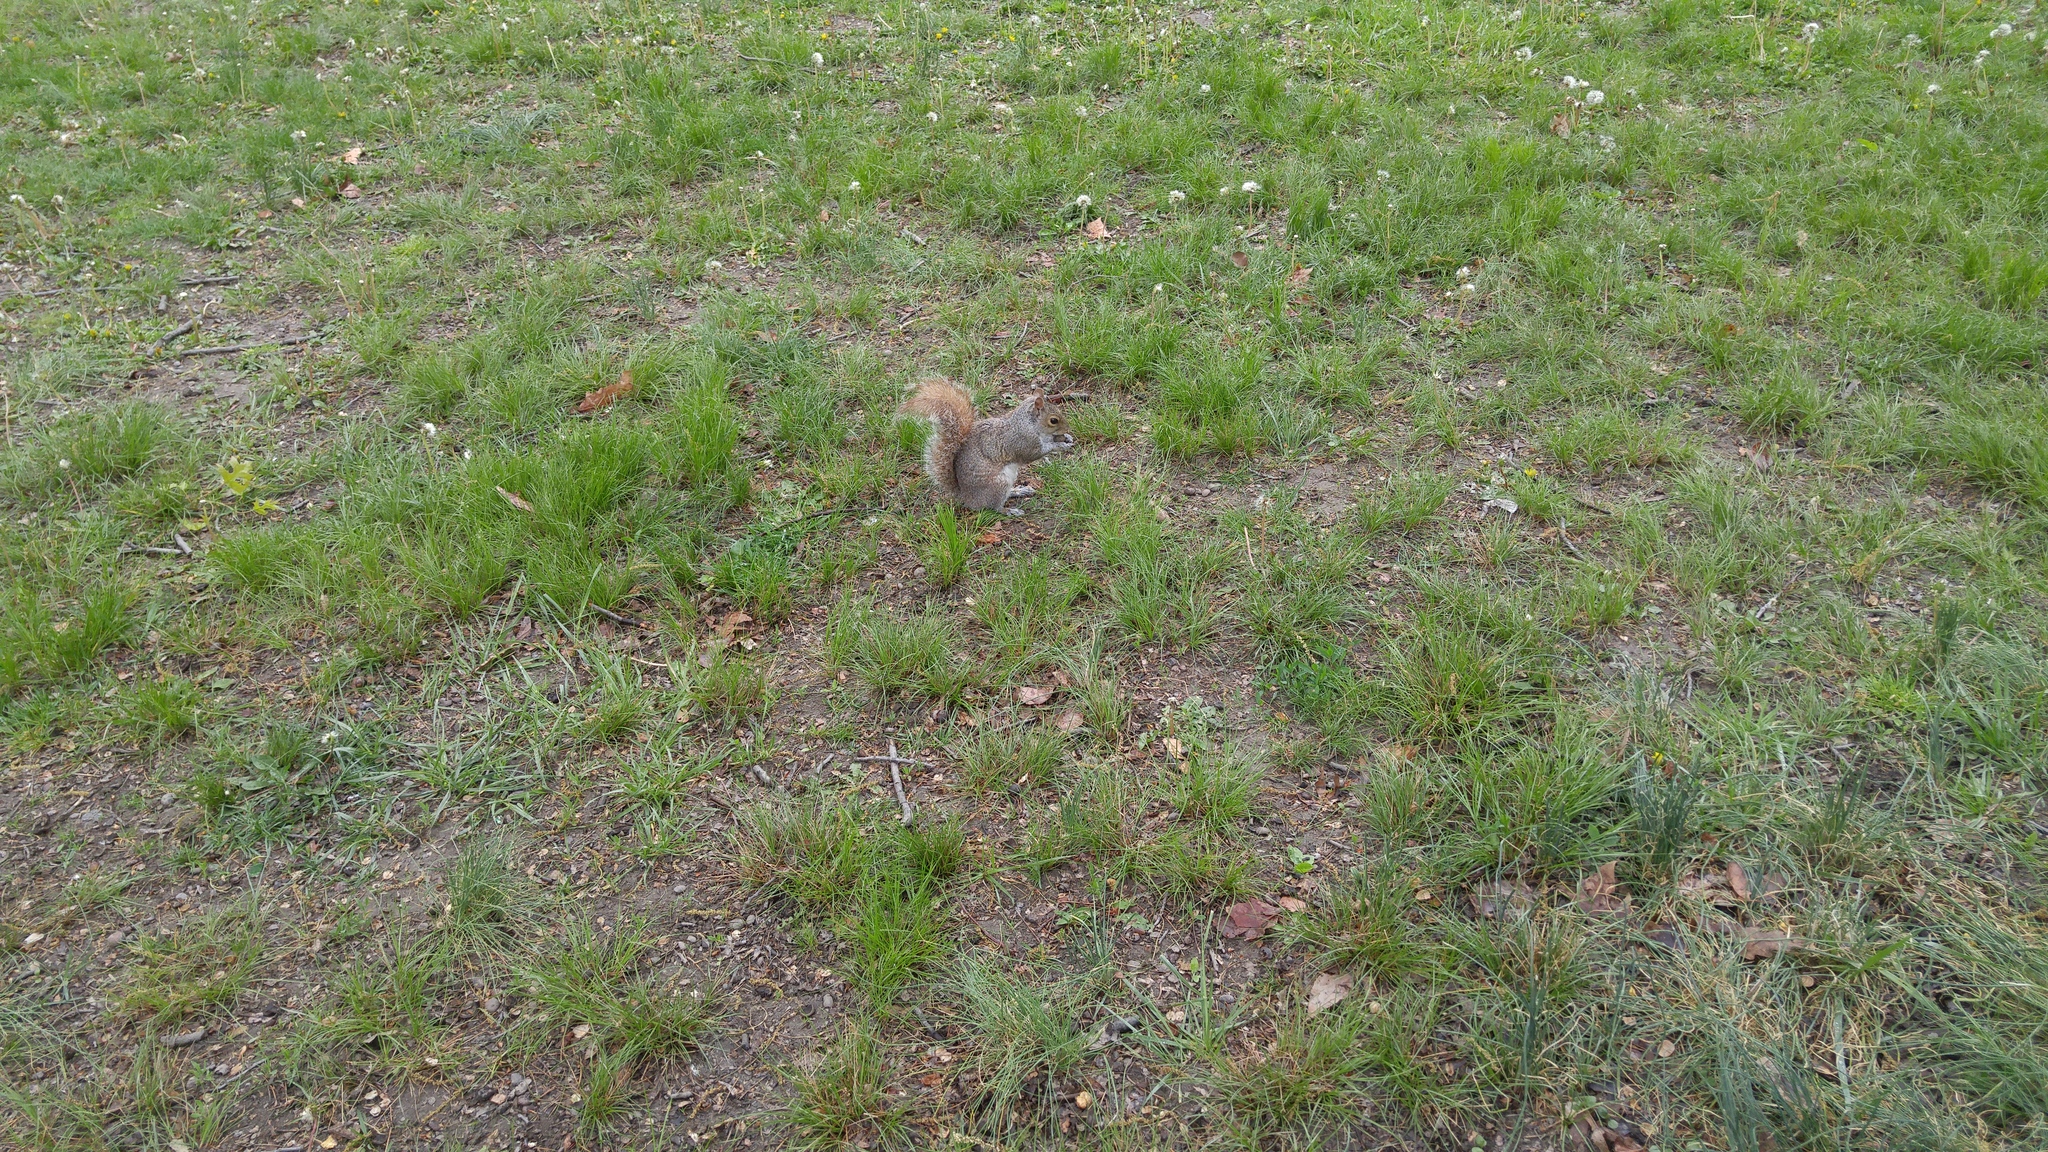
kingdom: Animalia
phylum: Chordata
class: Mammalia
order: Rodentia
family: Sciuridae
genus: Sciurus
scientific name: Sciurus carolinensis
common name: Eastern gray squirrel
